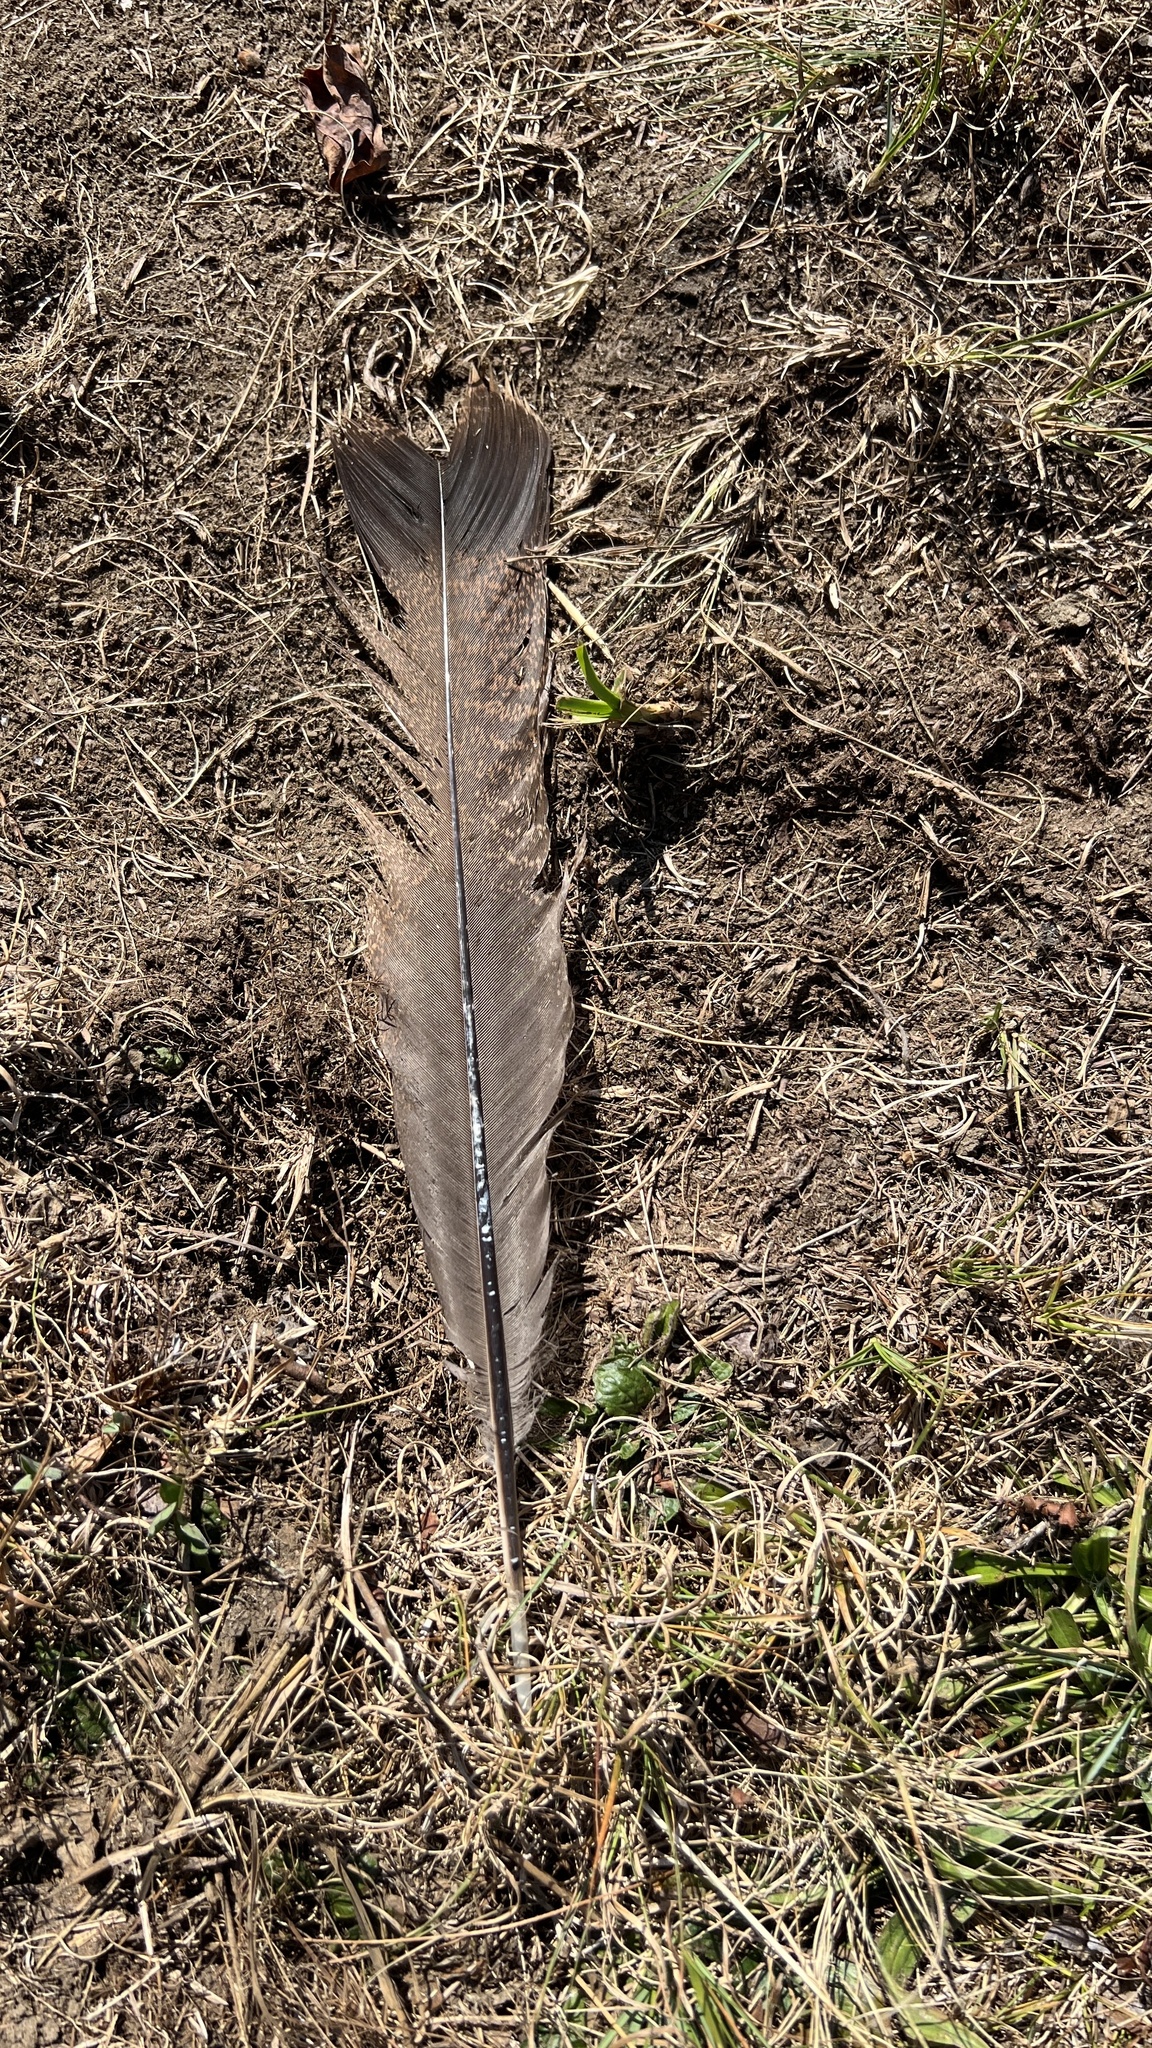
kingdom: Animalia
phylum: Chordata
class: Aves
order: Galliformes
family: Phasianidae
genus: Meleagris
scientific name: Meleagris gallopavo
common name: Wild turkey
